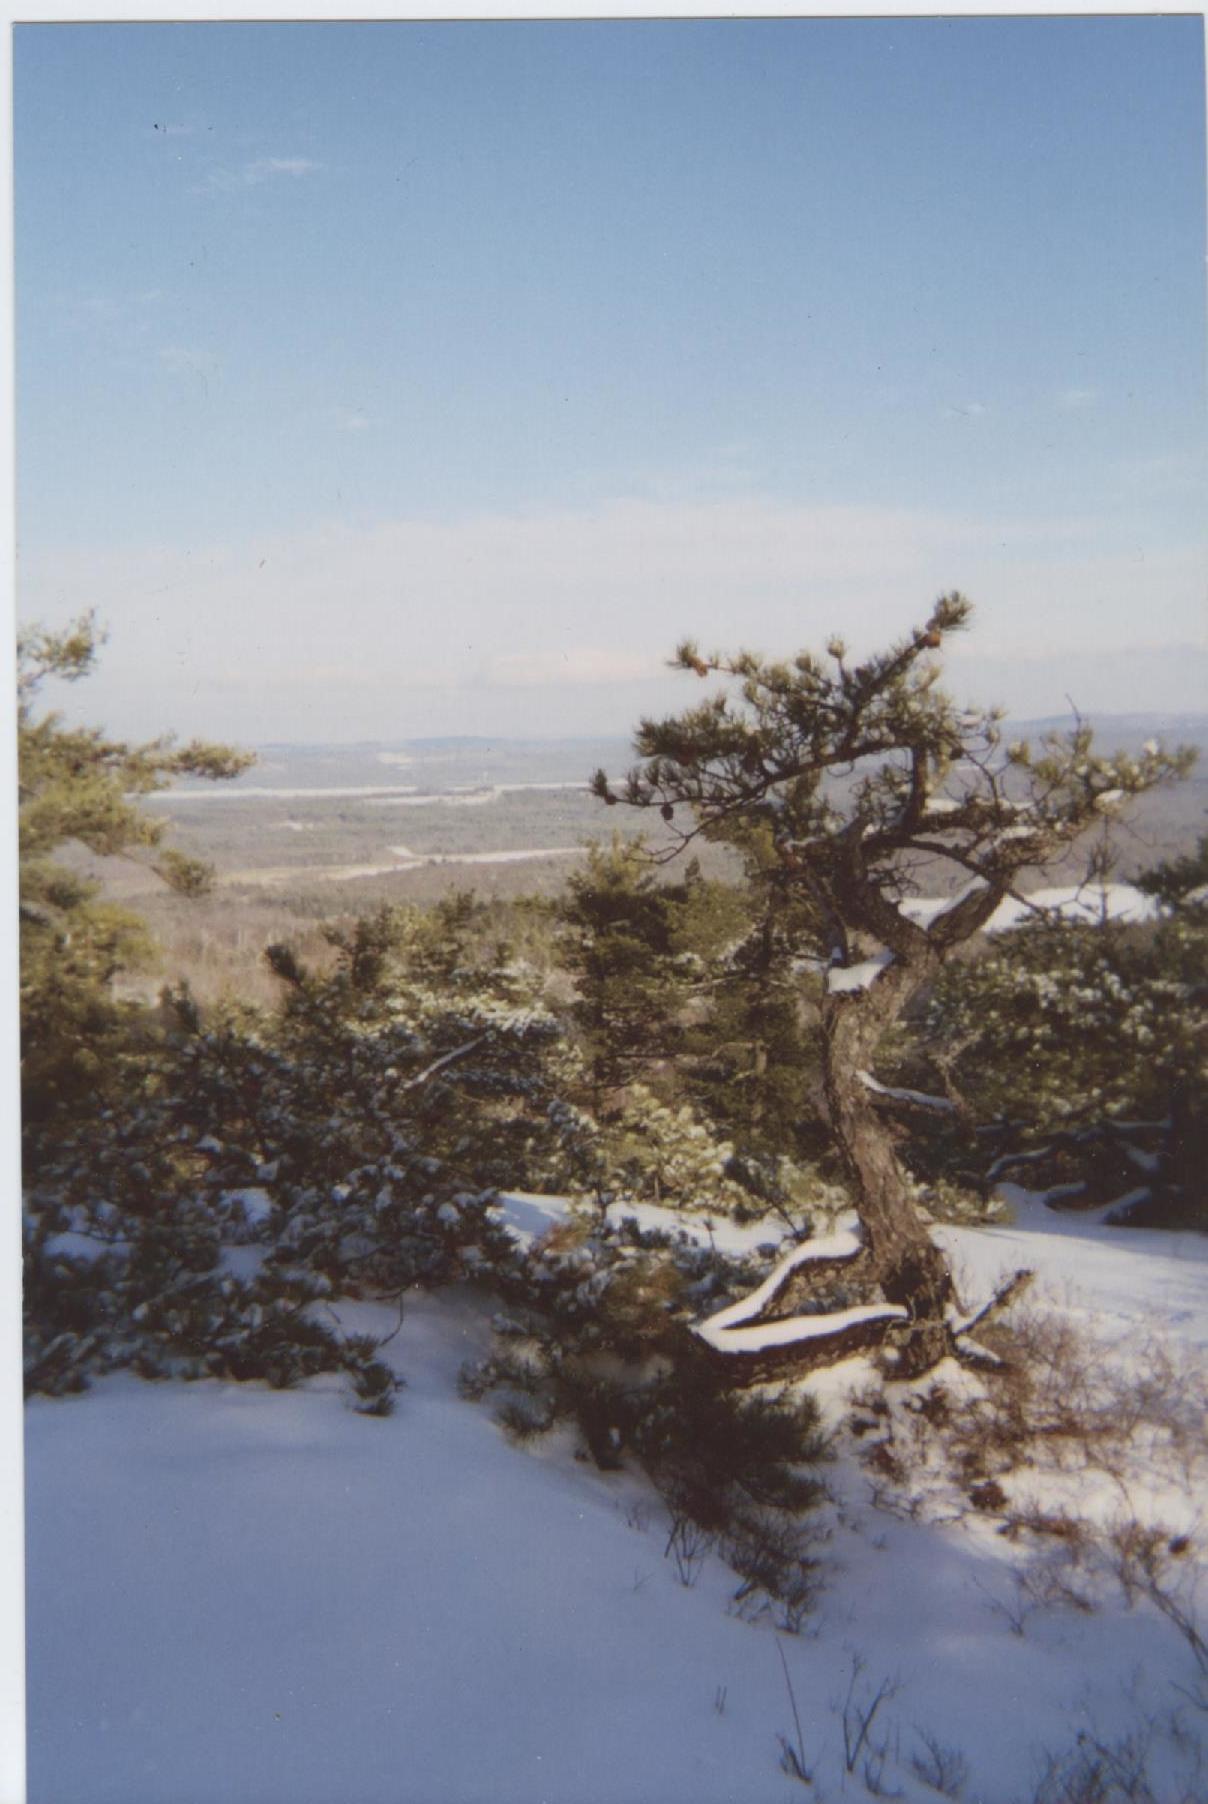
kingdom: Plantae
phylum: Tracheophyta
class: Pinopsida
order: Pinales
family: Pinaceae
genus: Pinus
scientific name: Pinus rigida
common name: Pitch pine
